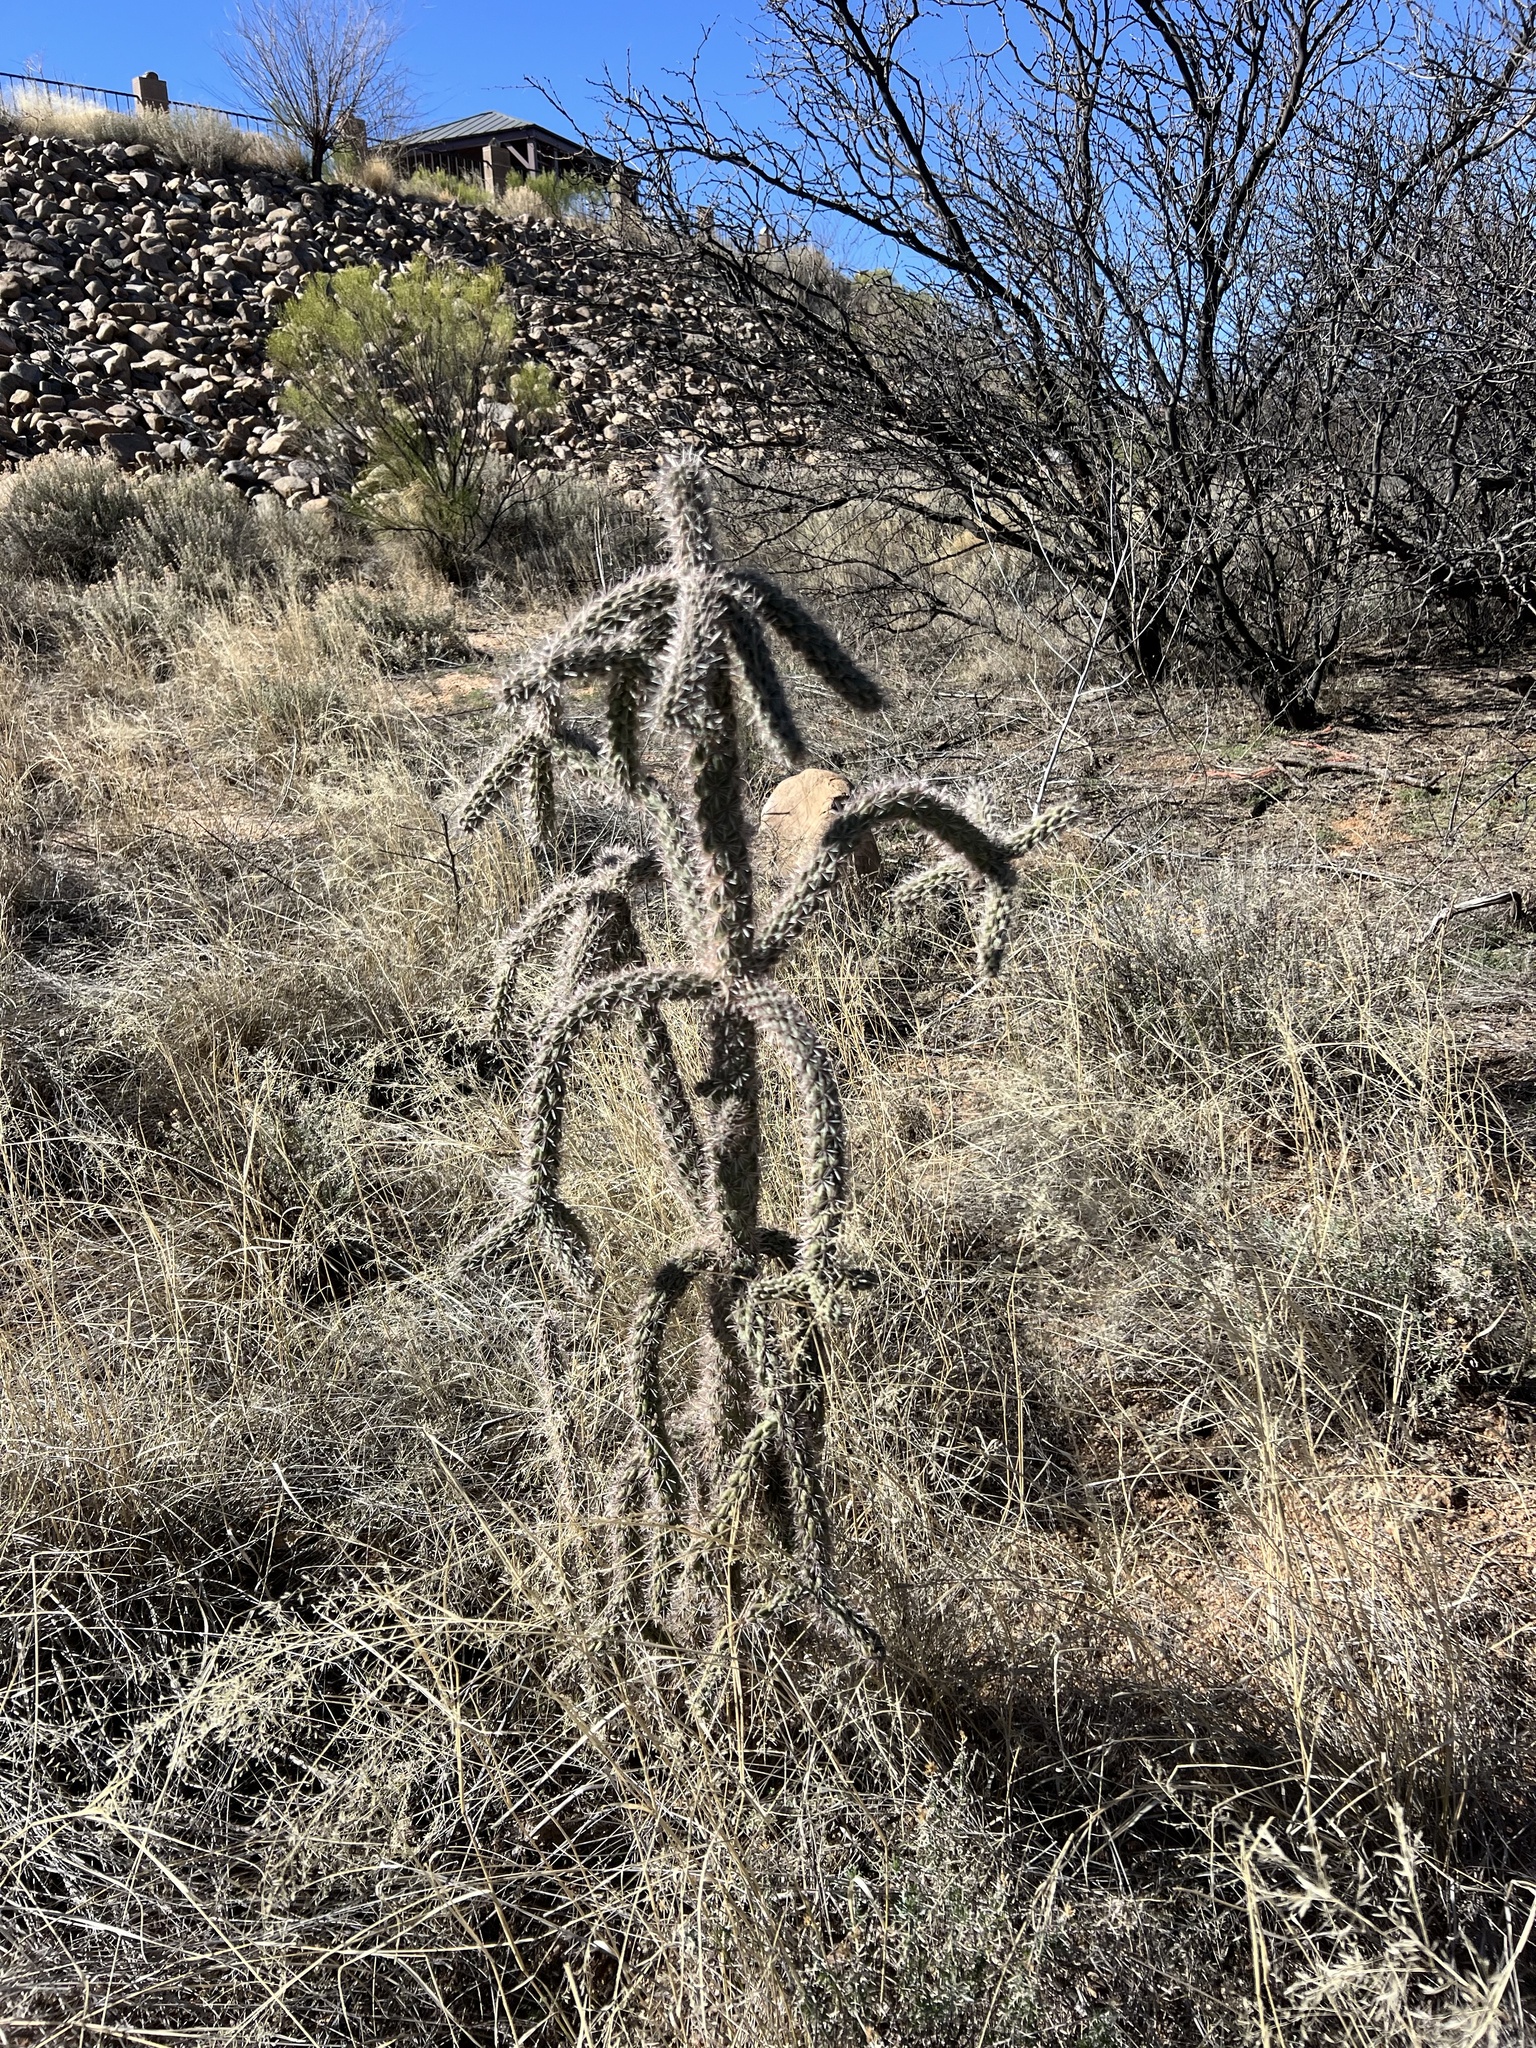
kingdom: Plantae
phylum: Tracheophyta
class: Magnoliopsida
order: Caryophyllales
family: Cactaceae
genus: Cylindropuntia
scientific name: Cylindropuntia imbricata
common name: Candelabrum cactus
